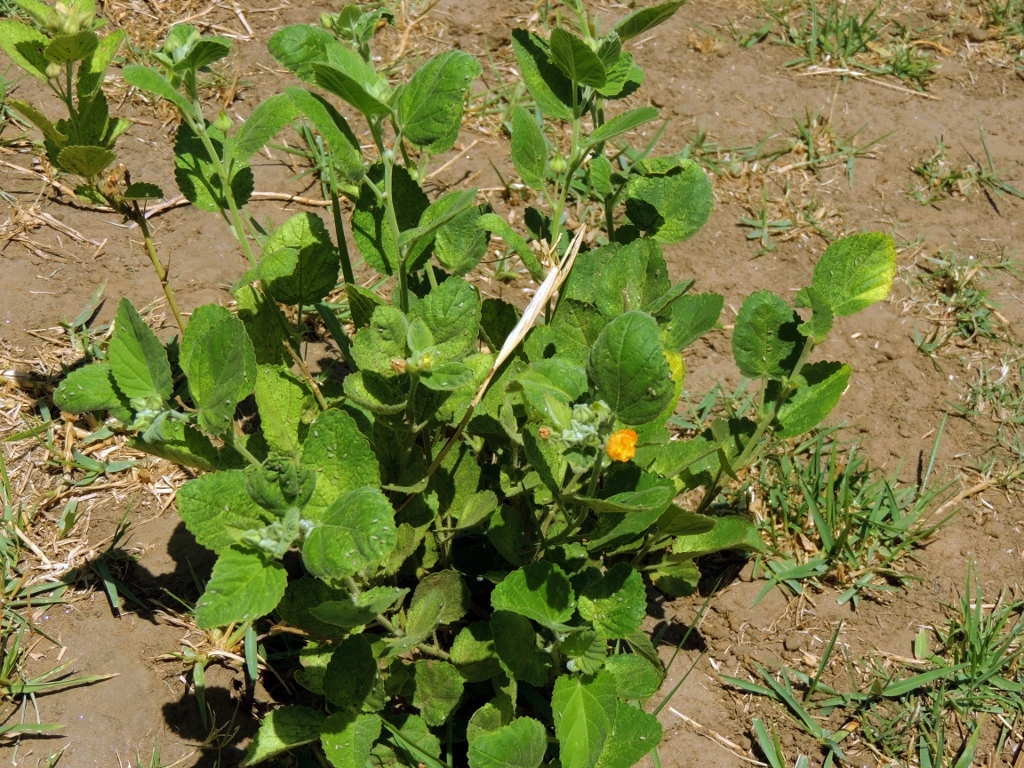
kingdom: Plantae
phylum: Tracheophyta
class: Magnoliopsida
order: Malvales
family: Malvaceae
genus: Sida
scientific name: Sida cordifolia
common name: Ilima
